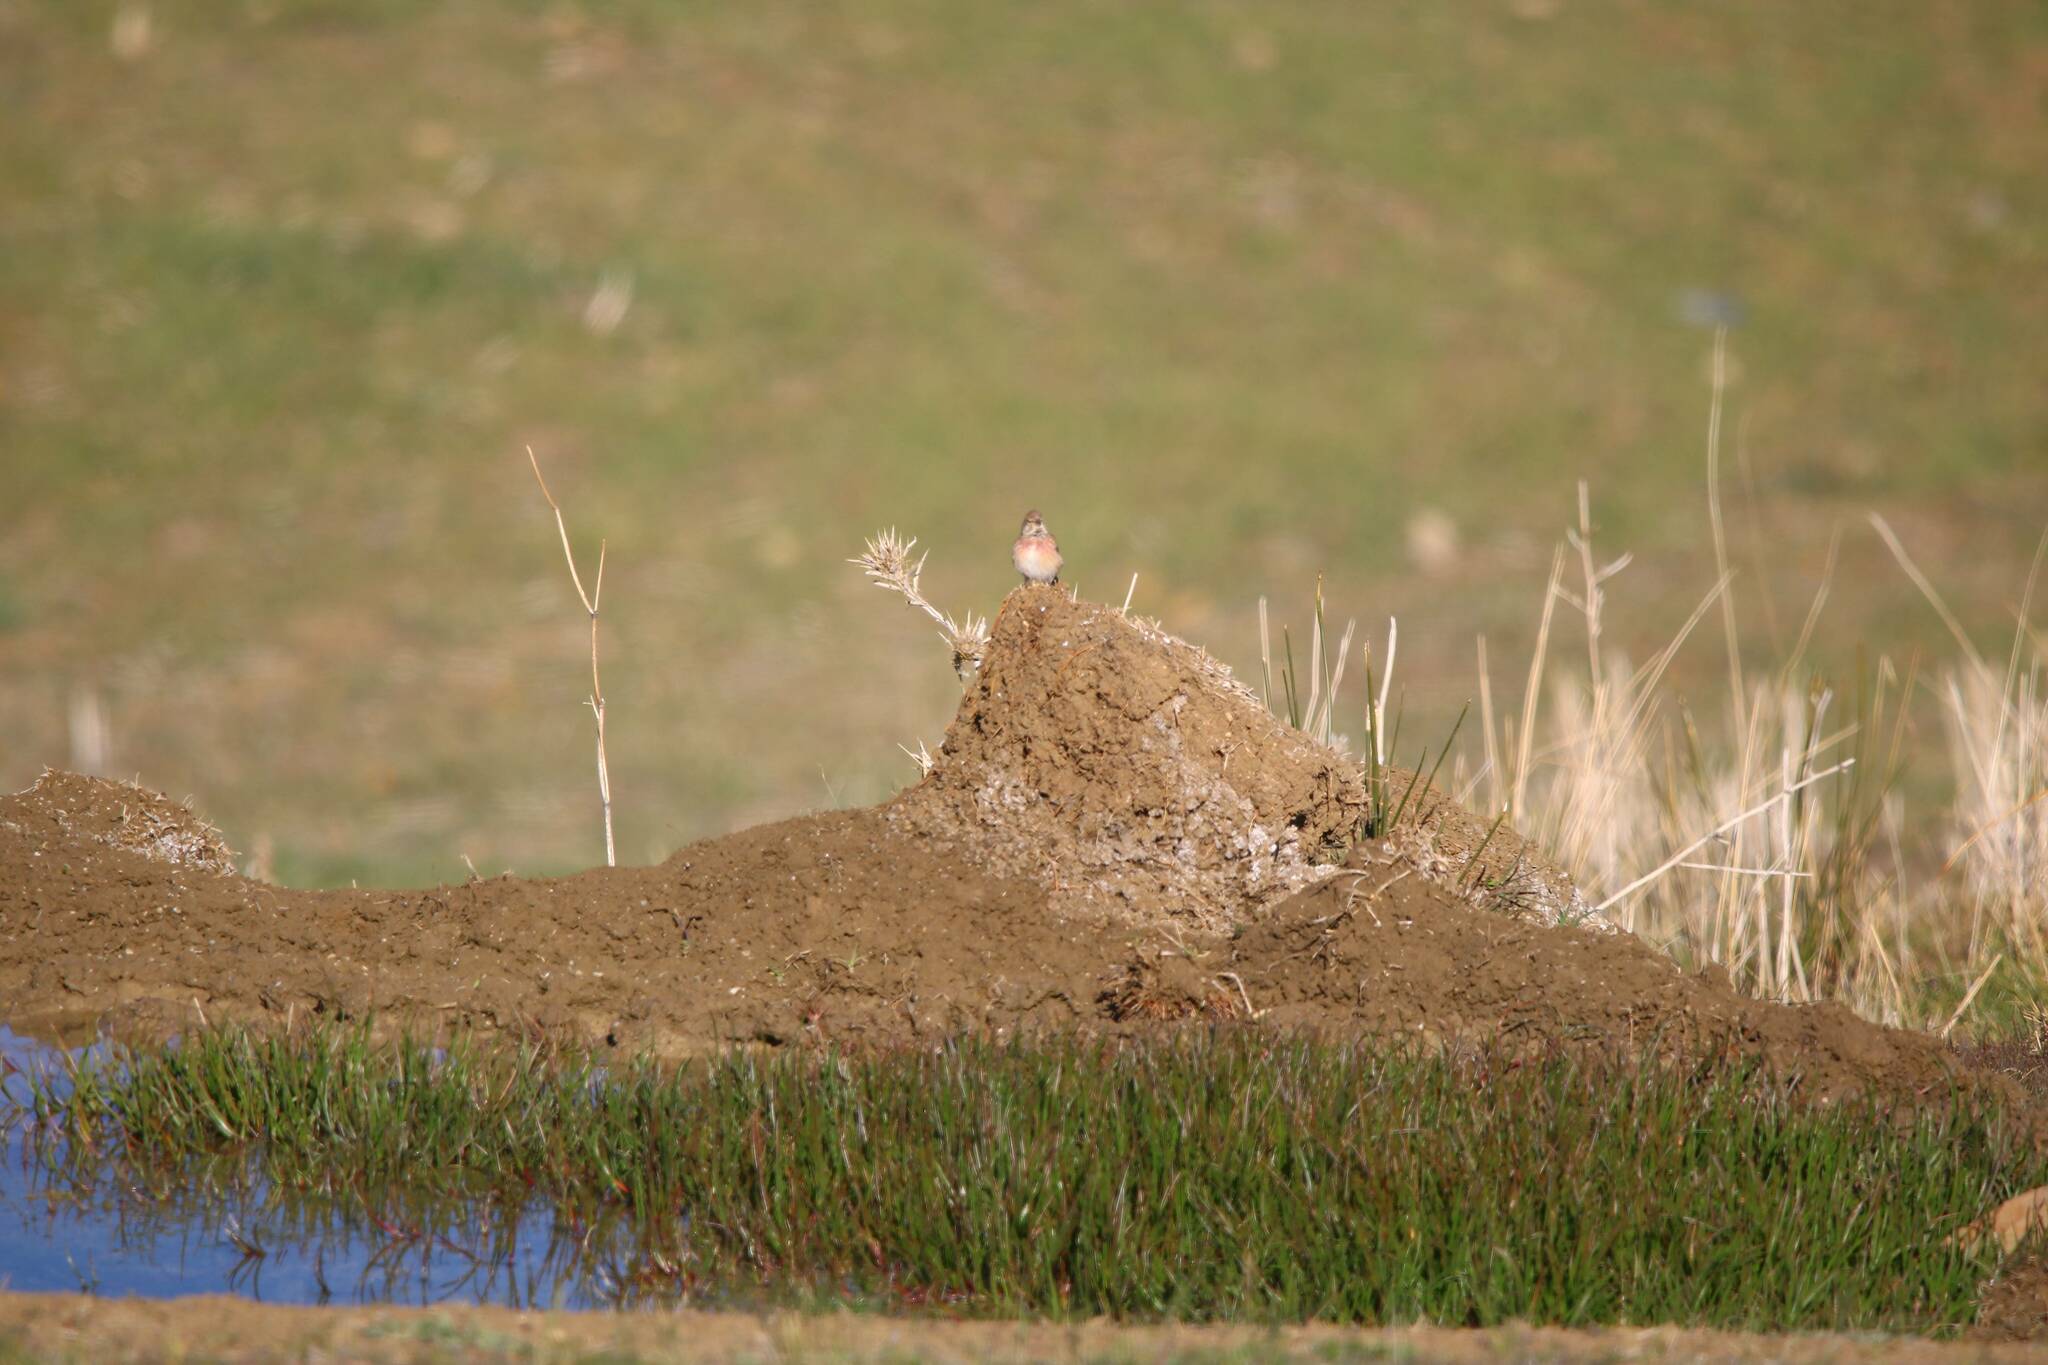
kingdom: Animalia
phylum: Chordata
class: Aves
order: Passeriformes
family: Fringillidae
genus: Linaria
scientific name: Linaria cannabina
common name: Common linnet
